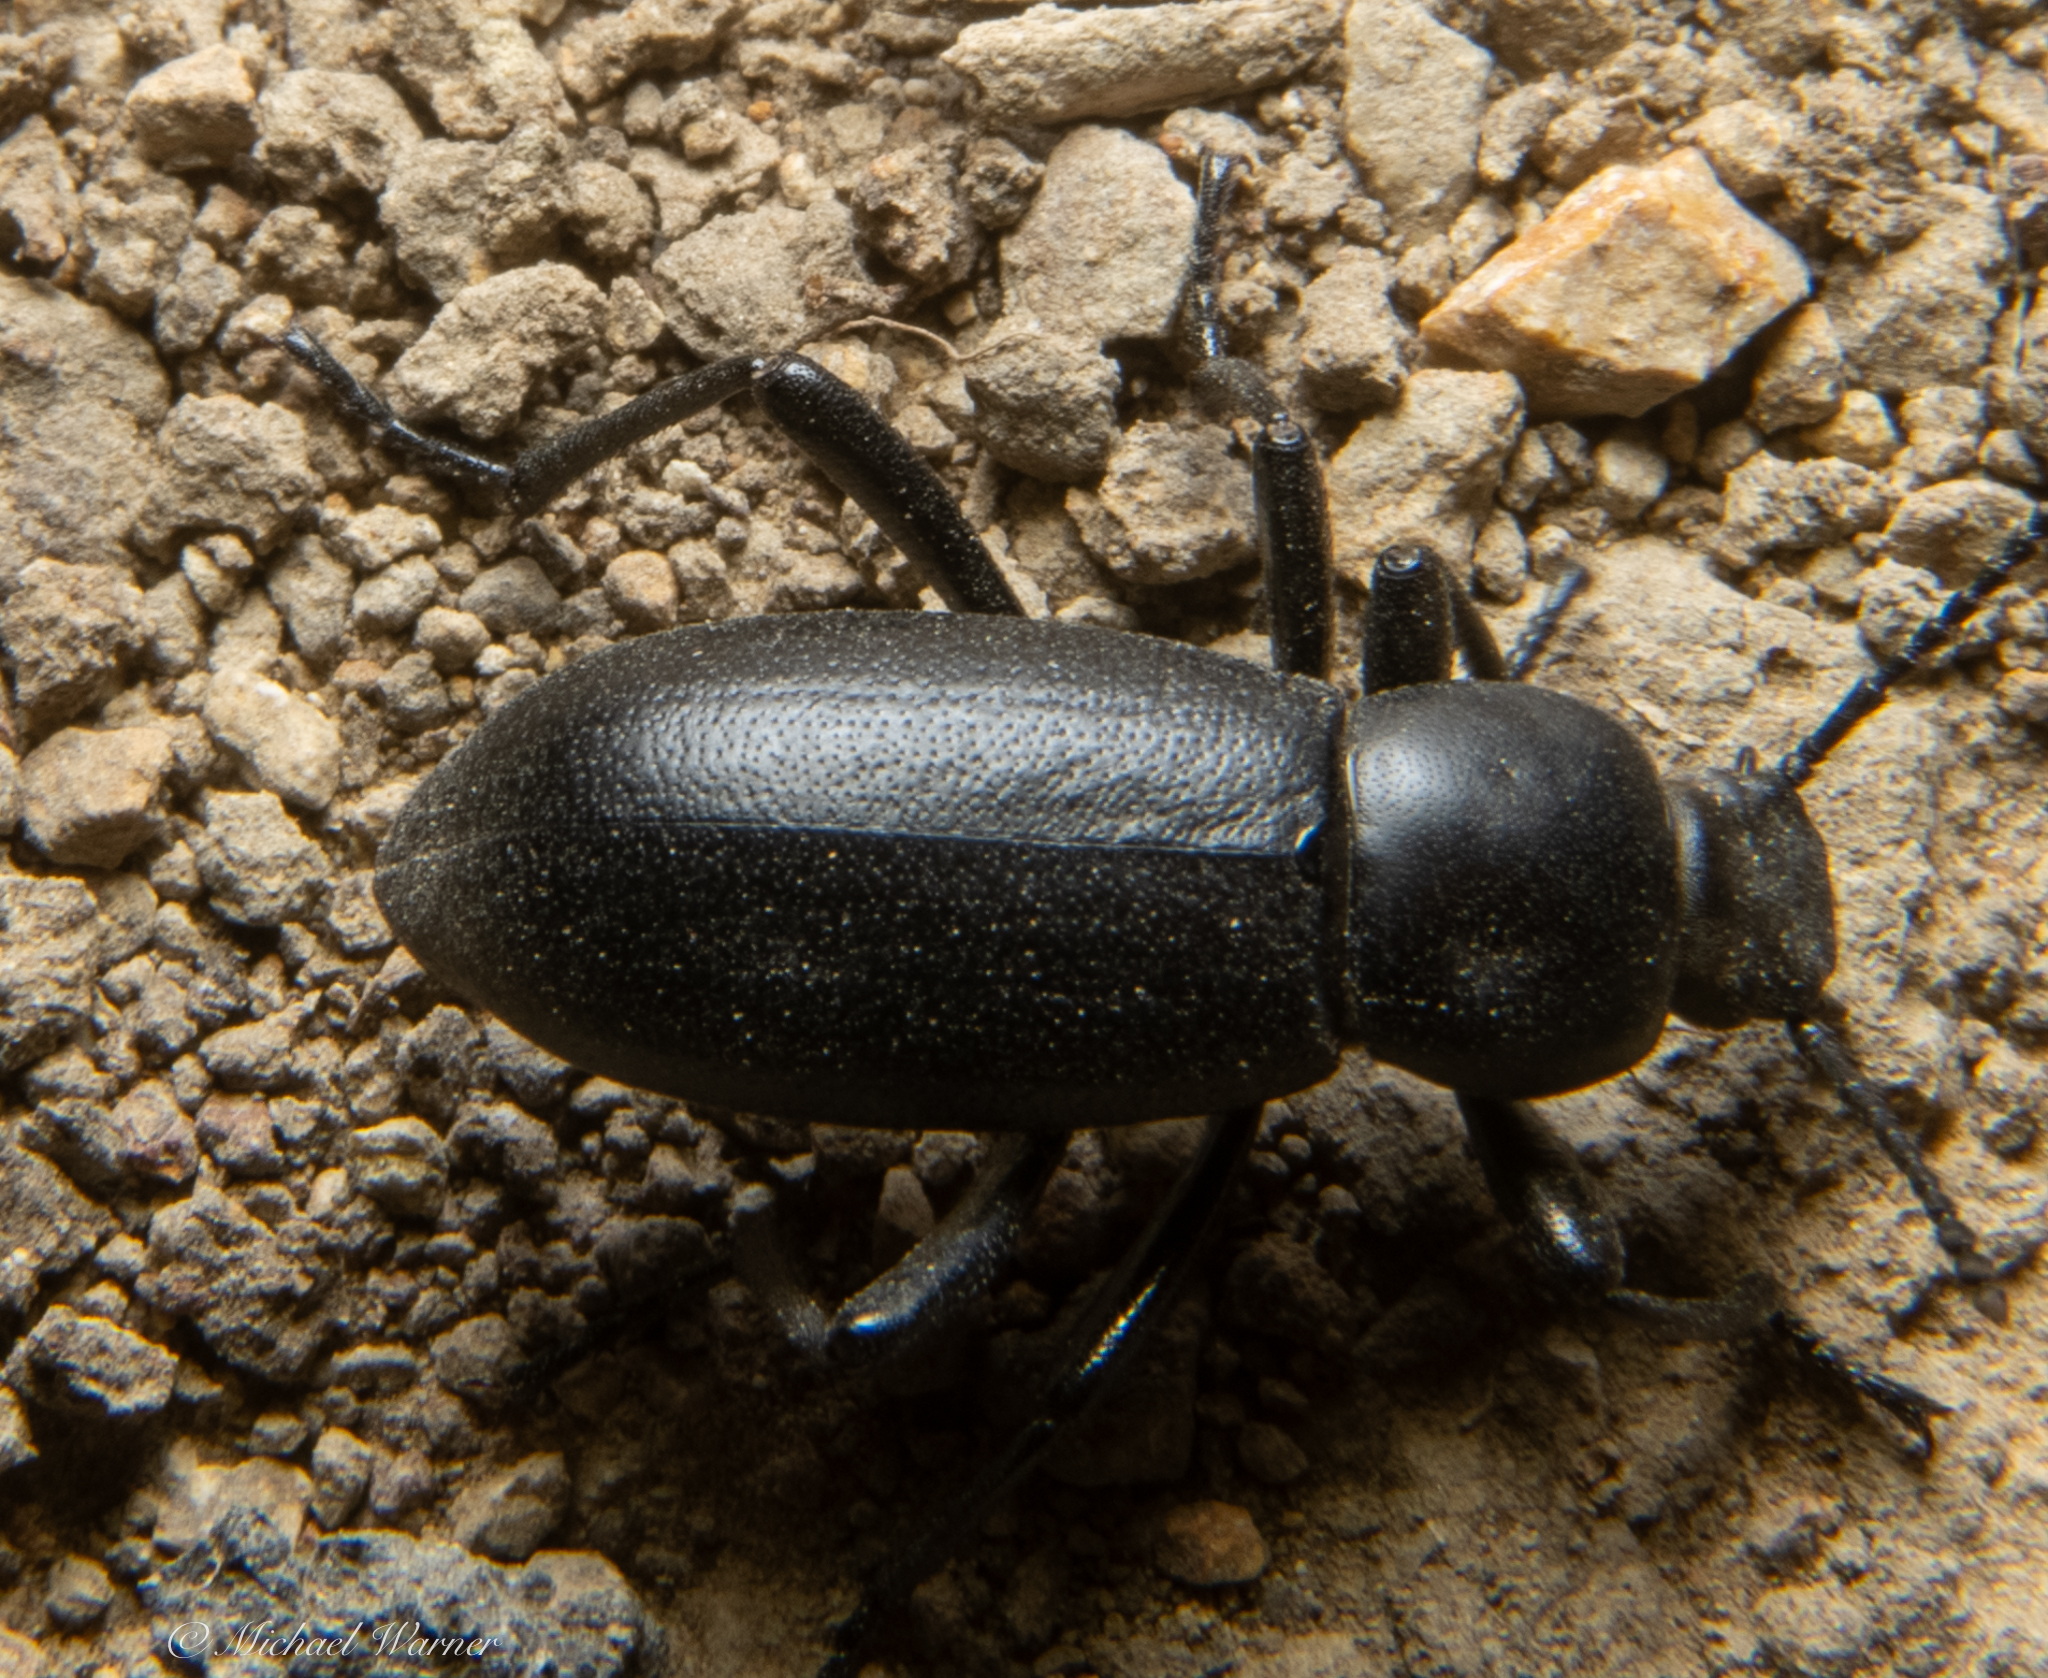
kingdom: Animalia
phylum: Arthropoda
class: Insecta
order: Coleoptera
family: Tenebrionidae
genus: Eleodes
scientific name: Eleodes quadricollis
